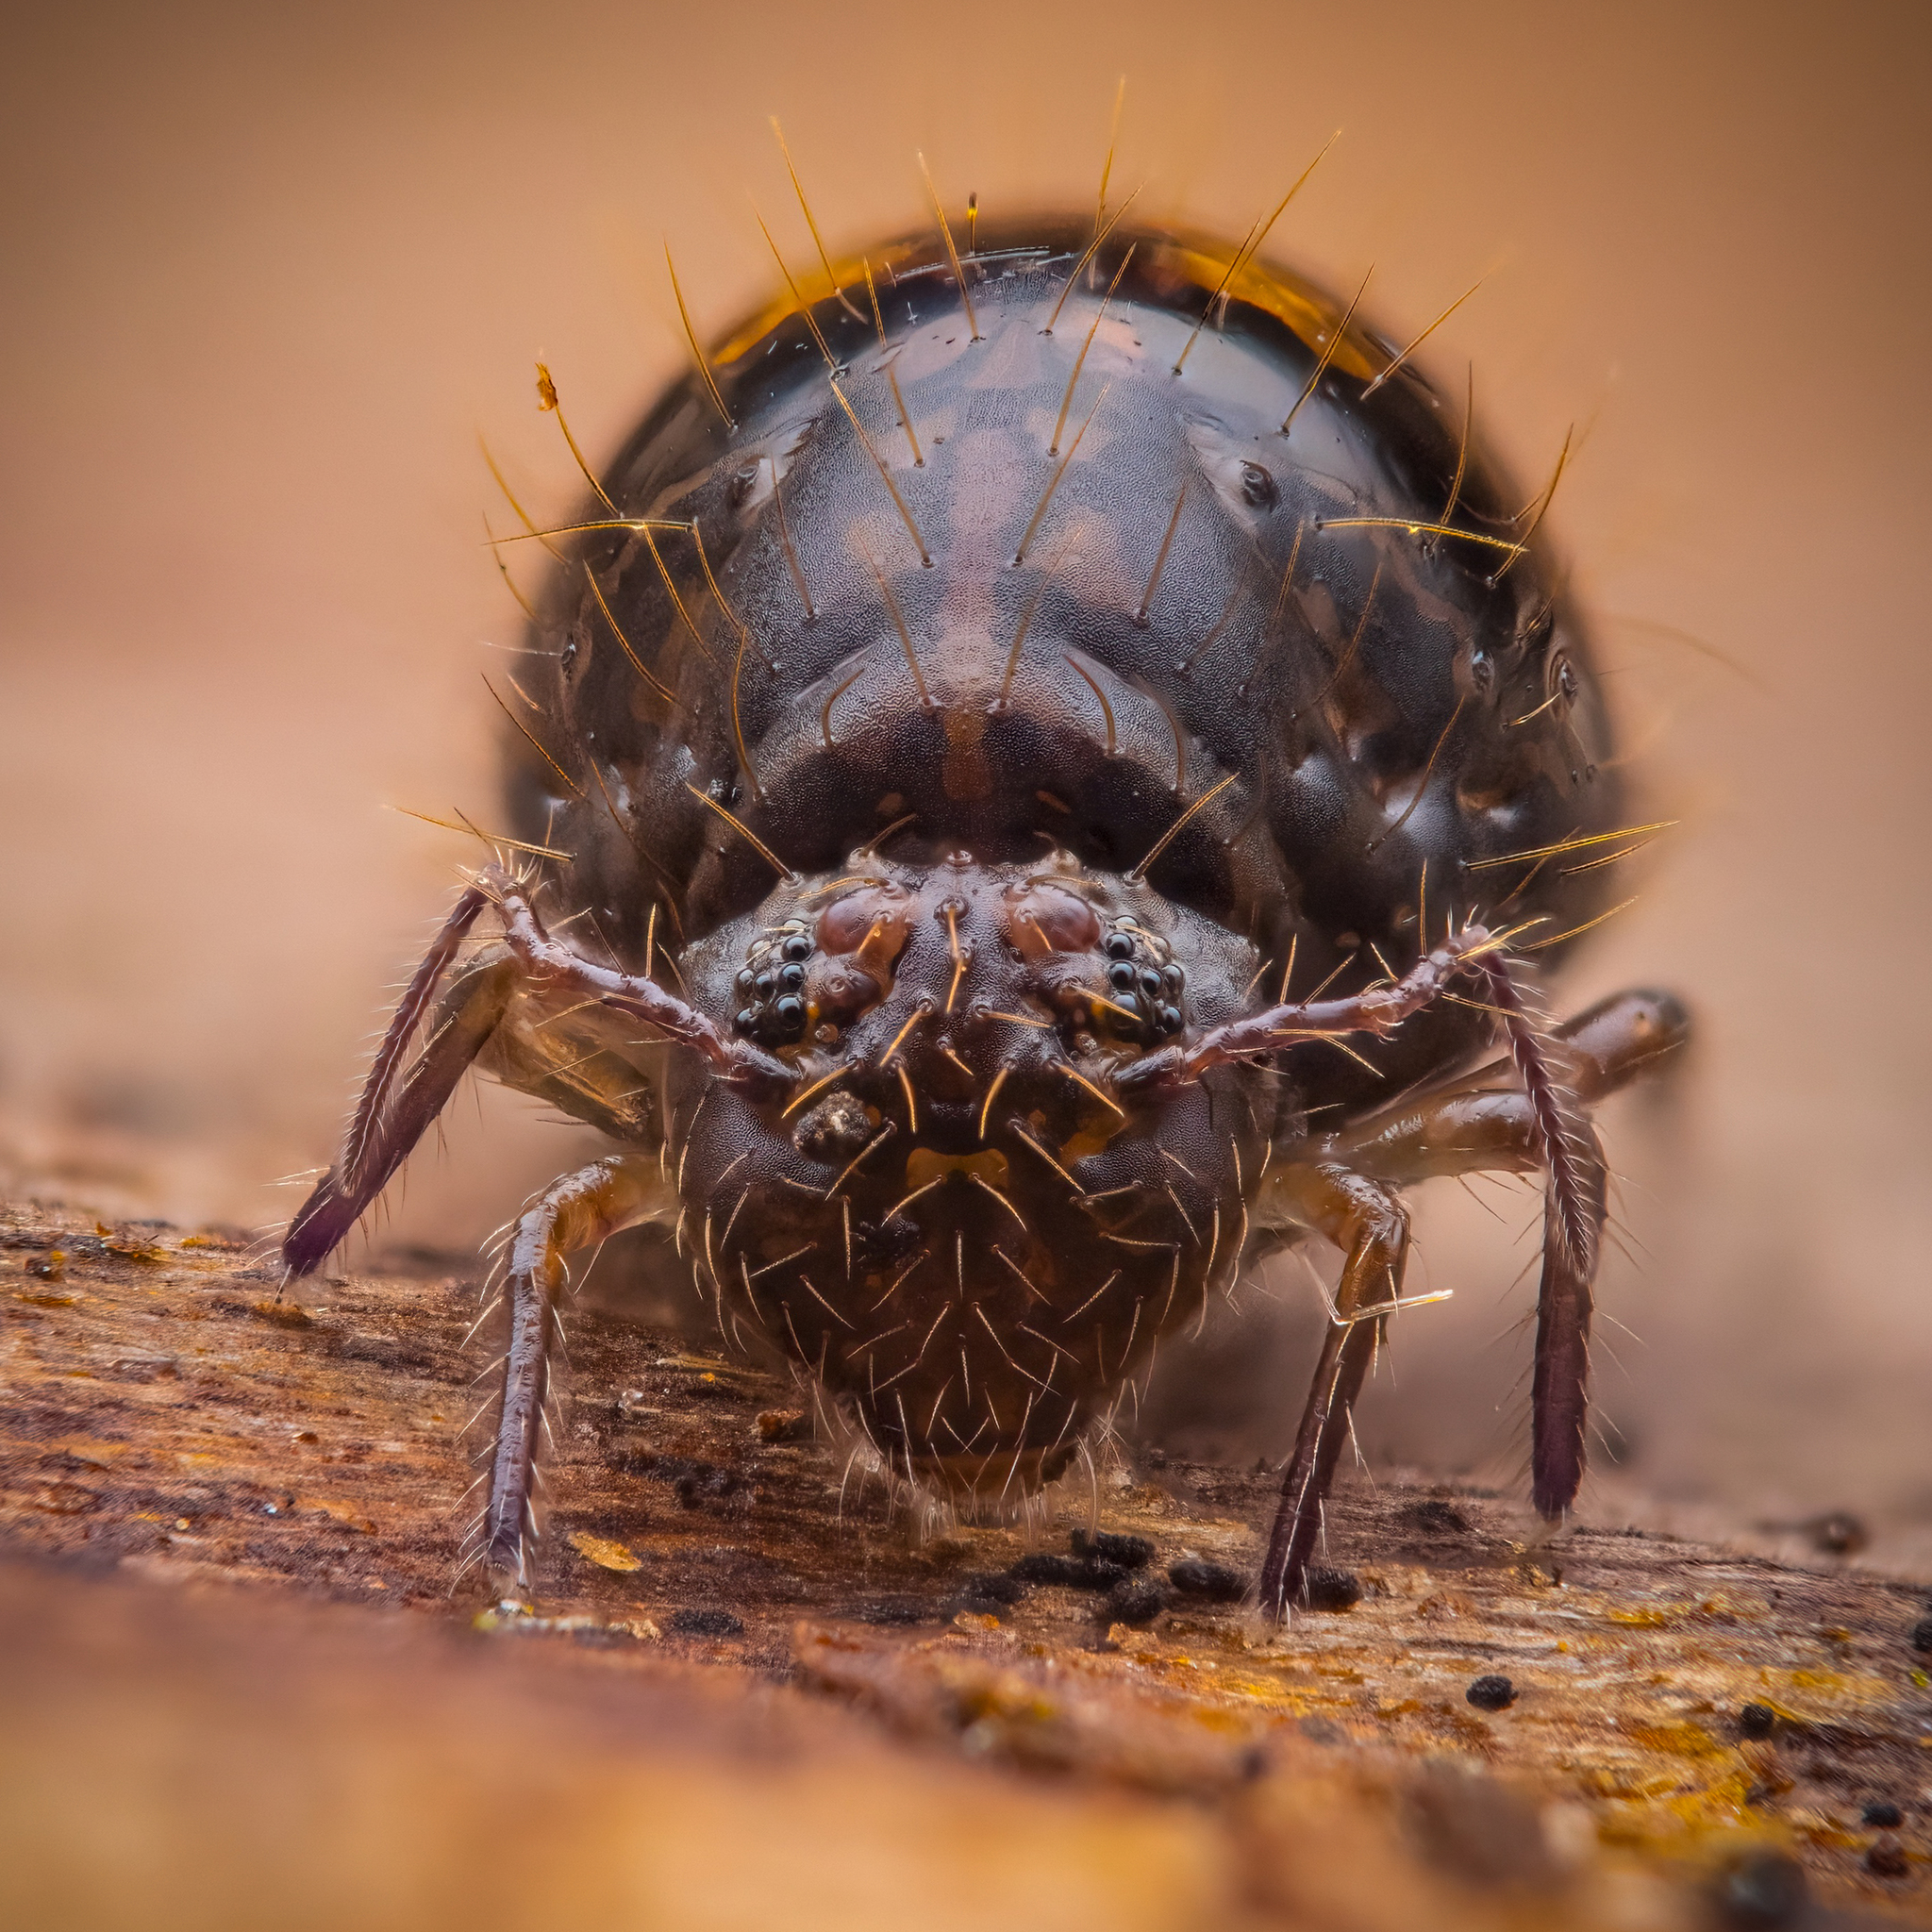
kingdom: Animalia
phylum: Arthropoda
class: Collembola
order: Symphypleona
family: Sminthuridae
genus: Allacma
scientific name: Allacma fusca
